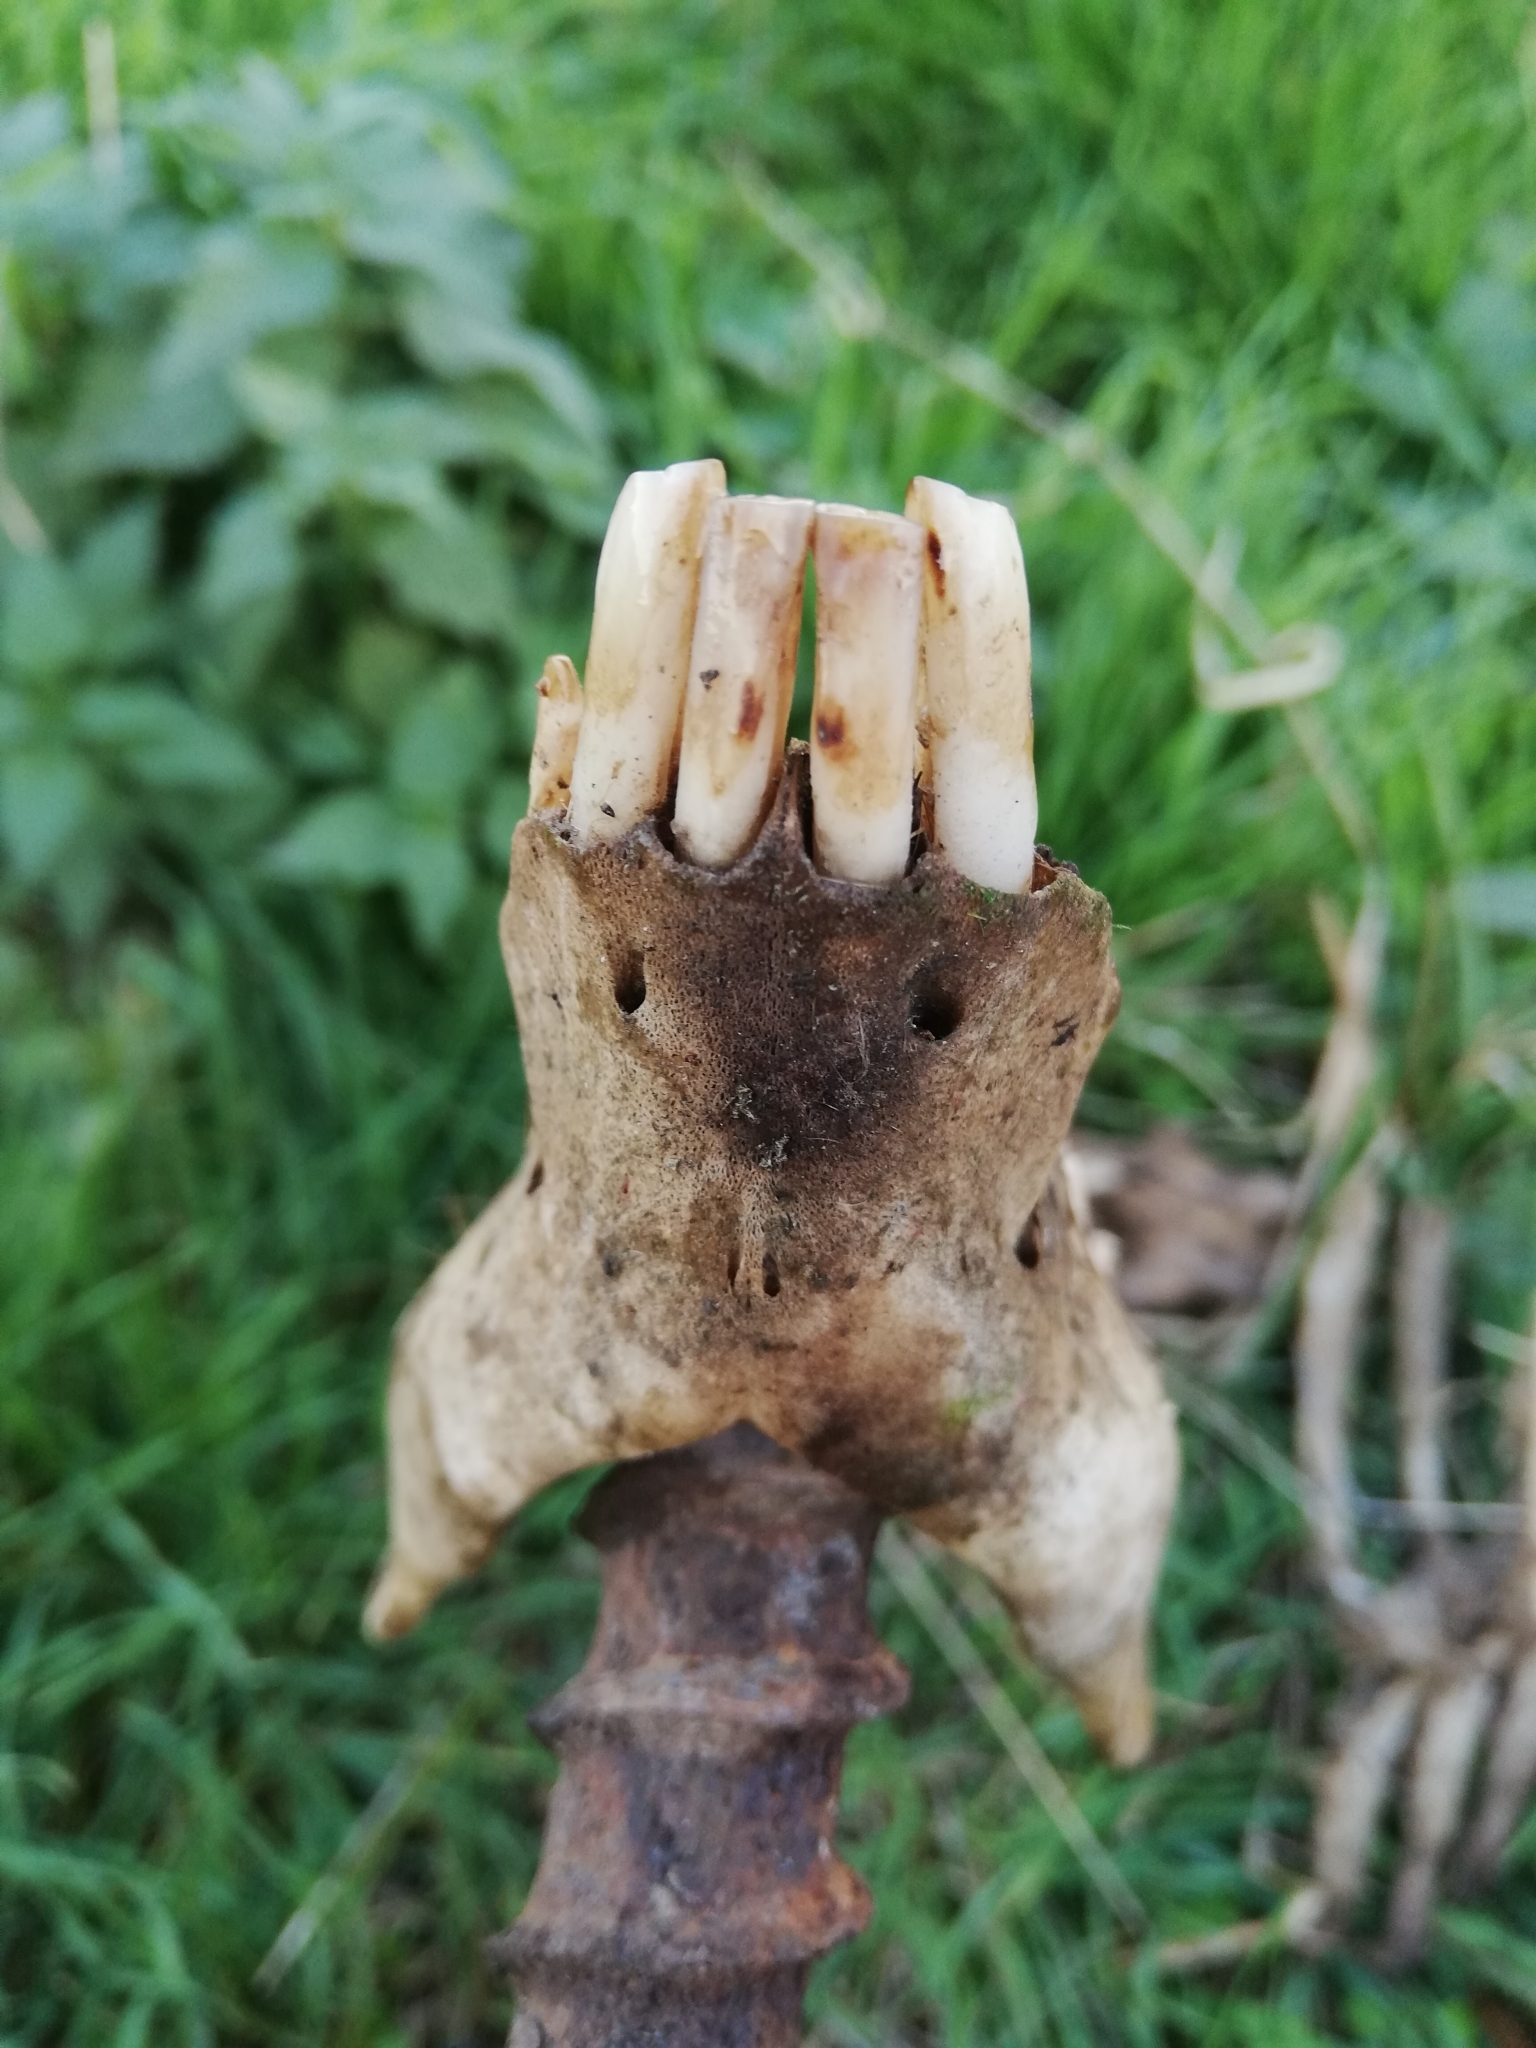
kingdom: Animalia
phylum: Chordata
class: Mammalia
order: Artiodactyla
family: Suidae
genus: Sus
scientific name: Sus scrofa
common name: Wild boar
